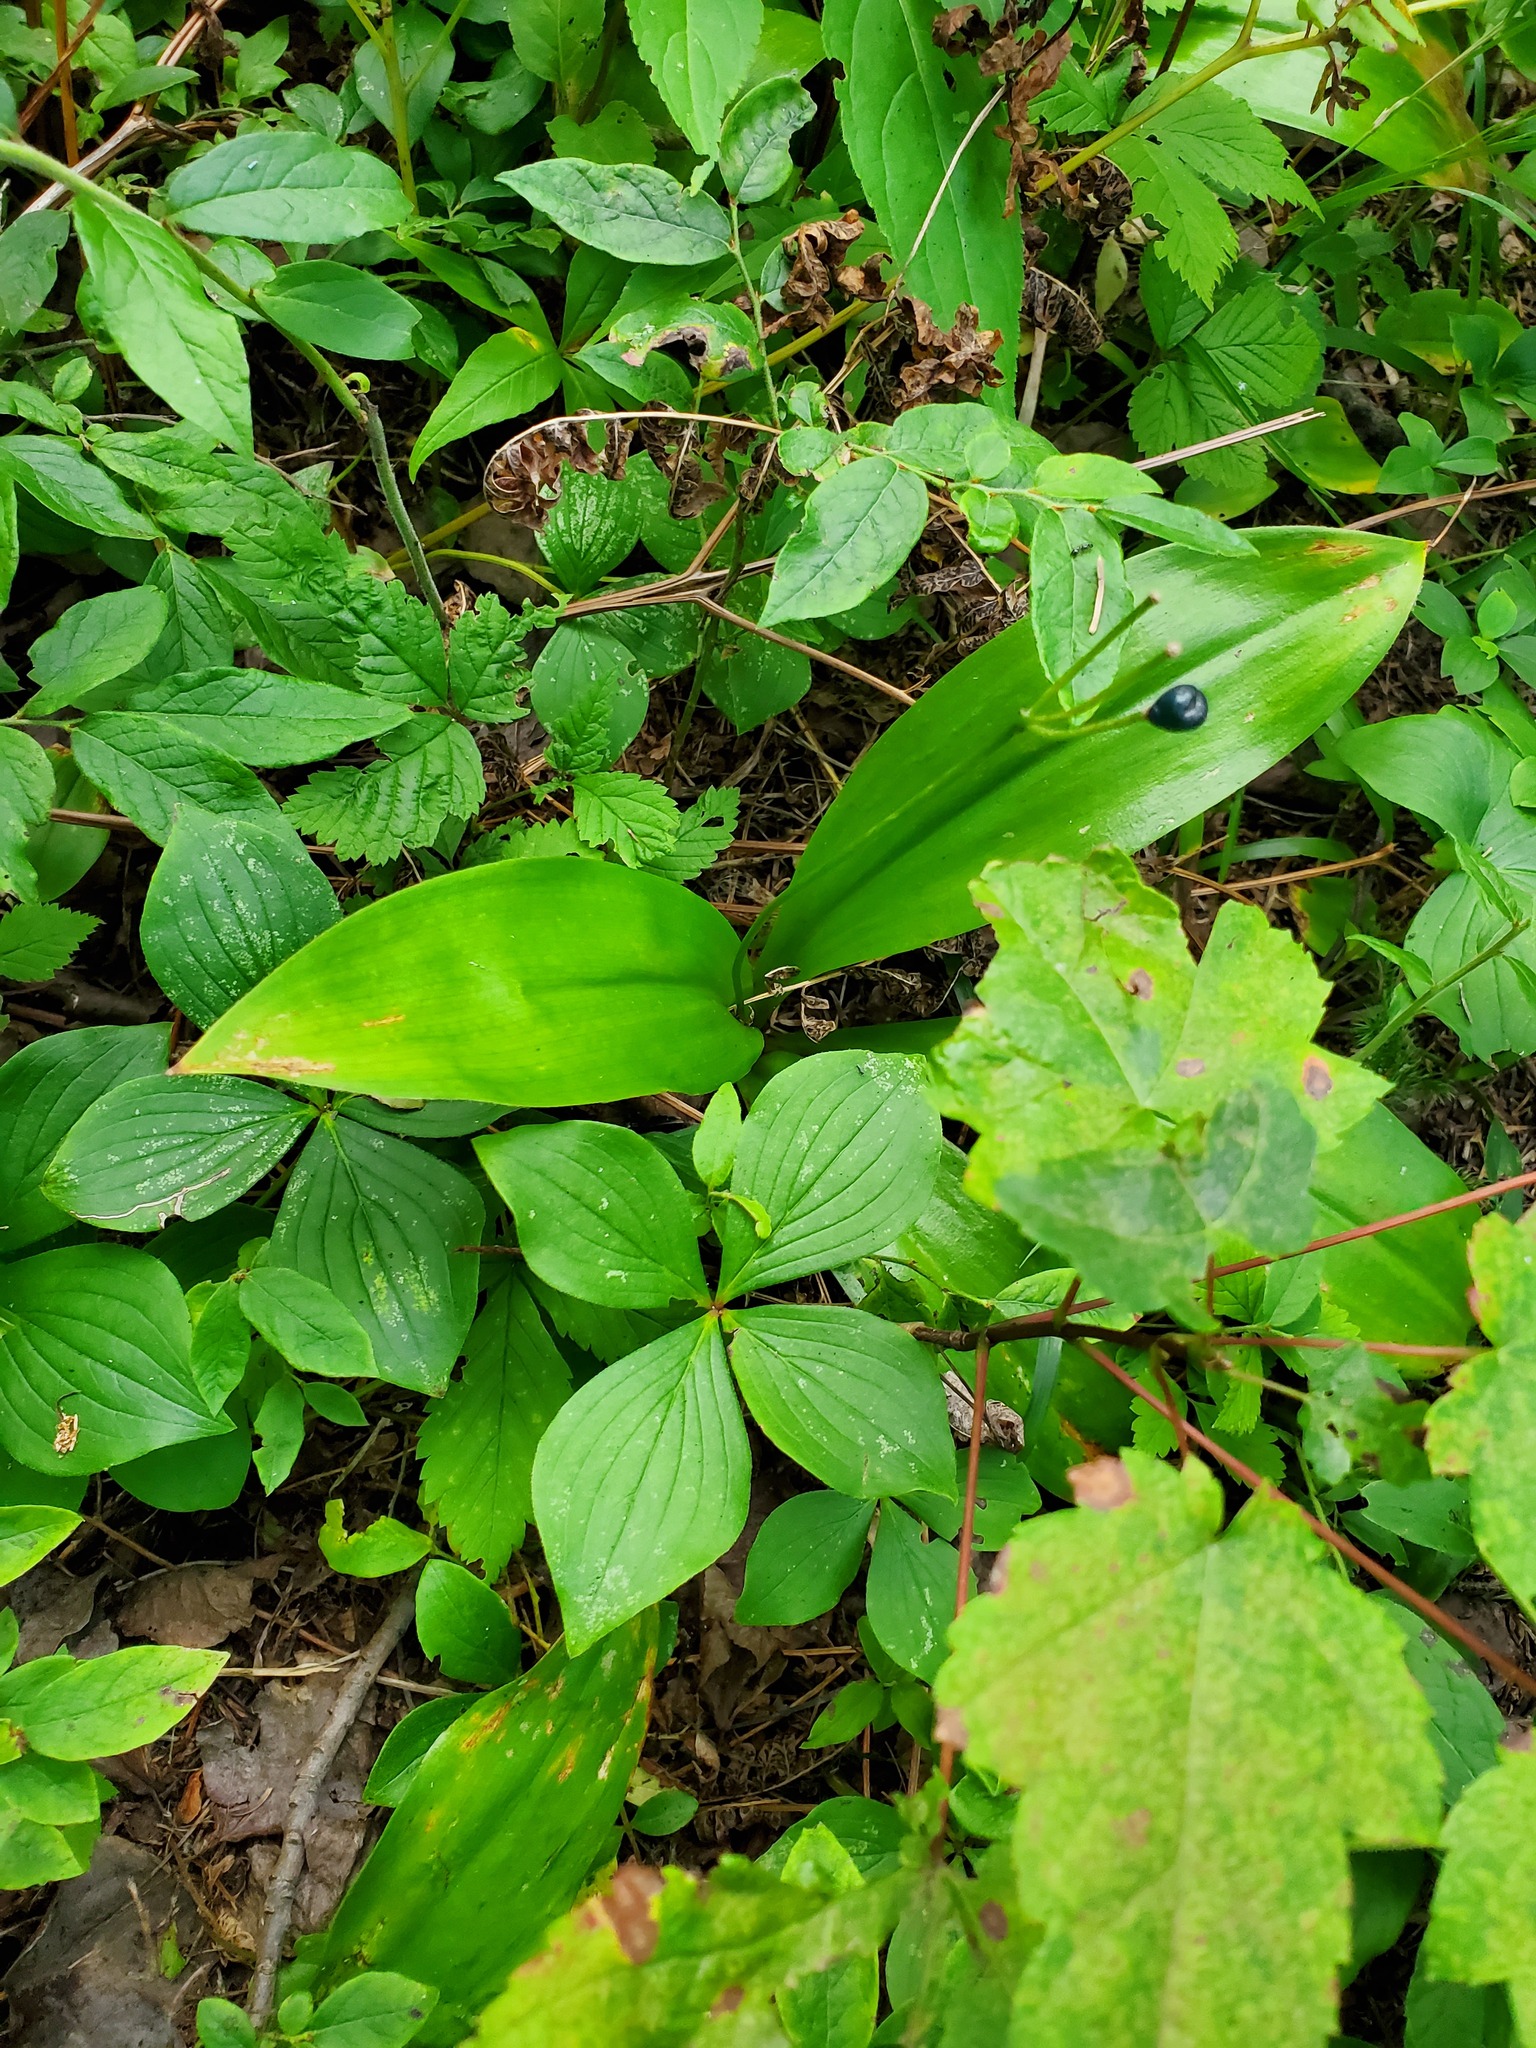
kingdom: Plantae
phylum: Tracheophyta
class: Liliopsida
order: Liliales
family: Liliaceae
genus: Clintonia
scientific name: Clintonia borealis
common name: Yellow clintonia
